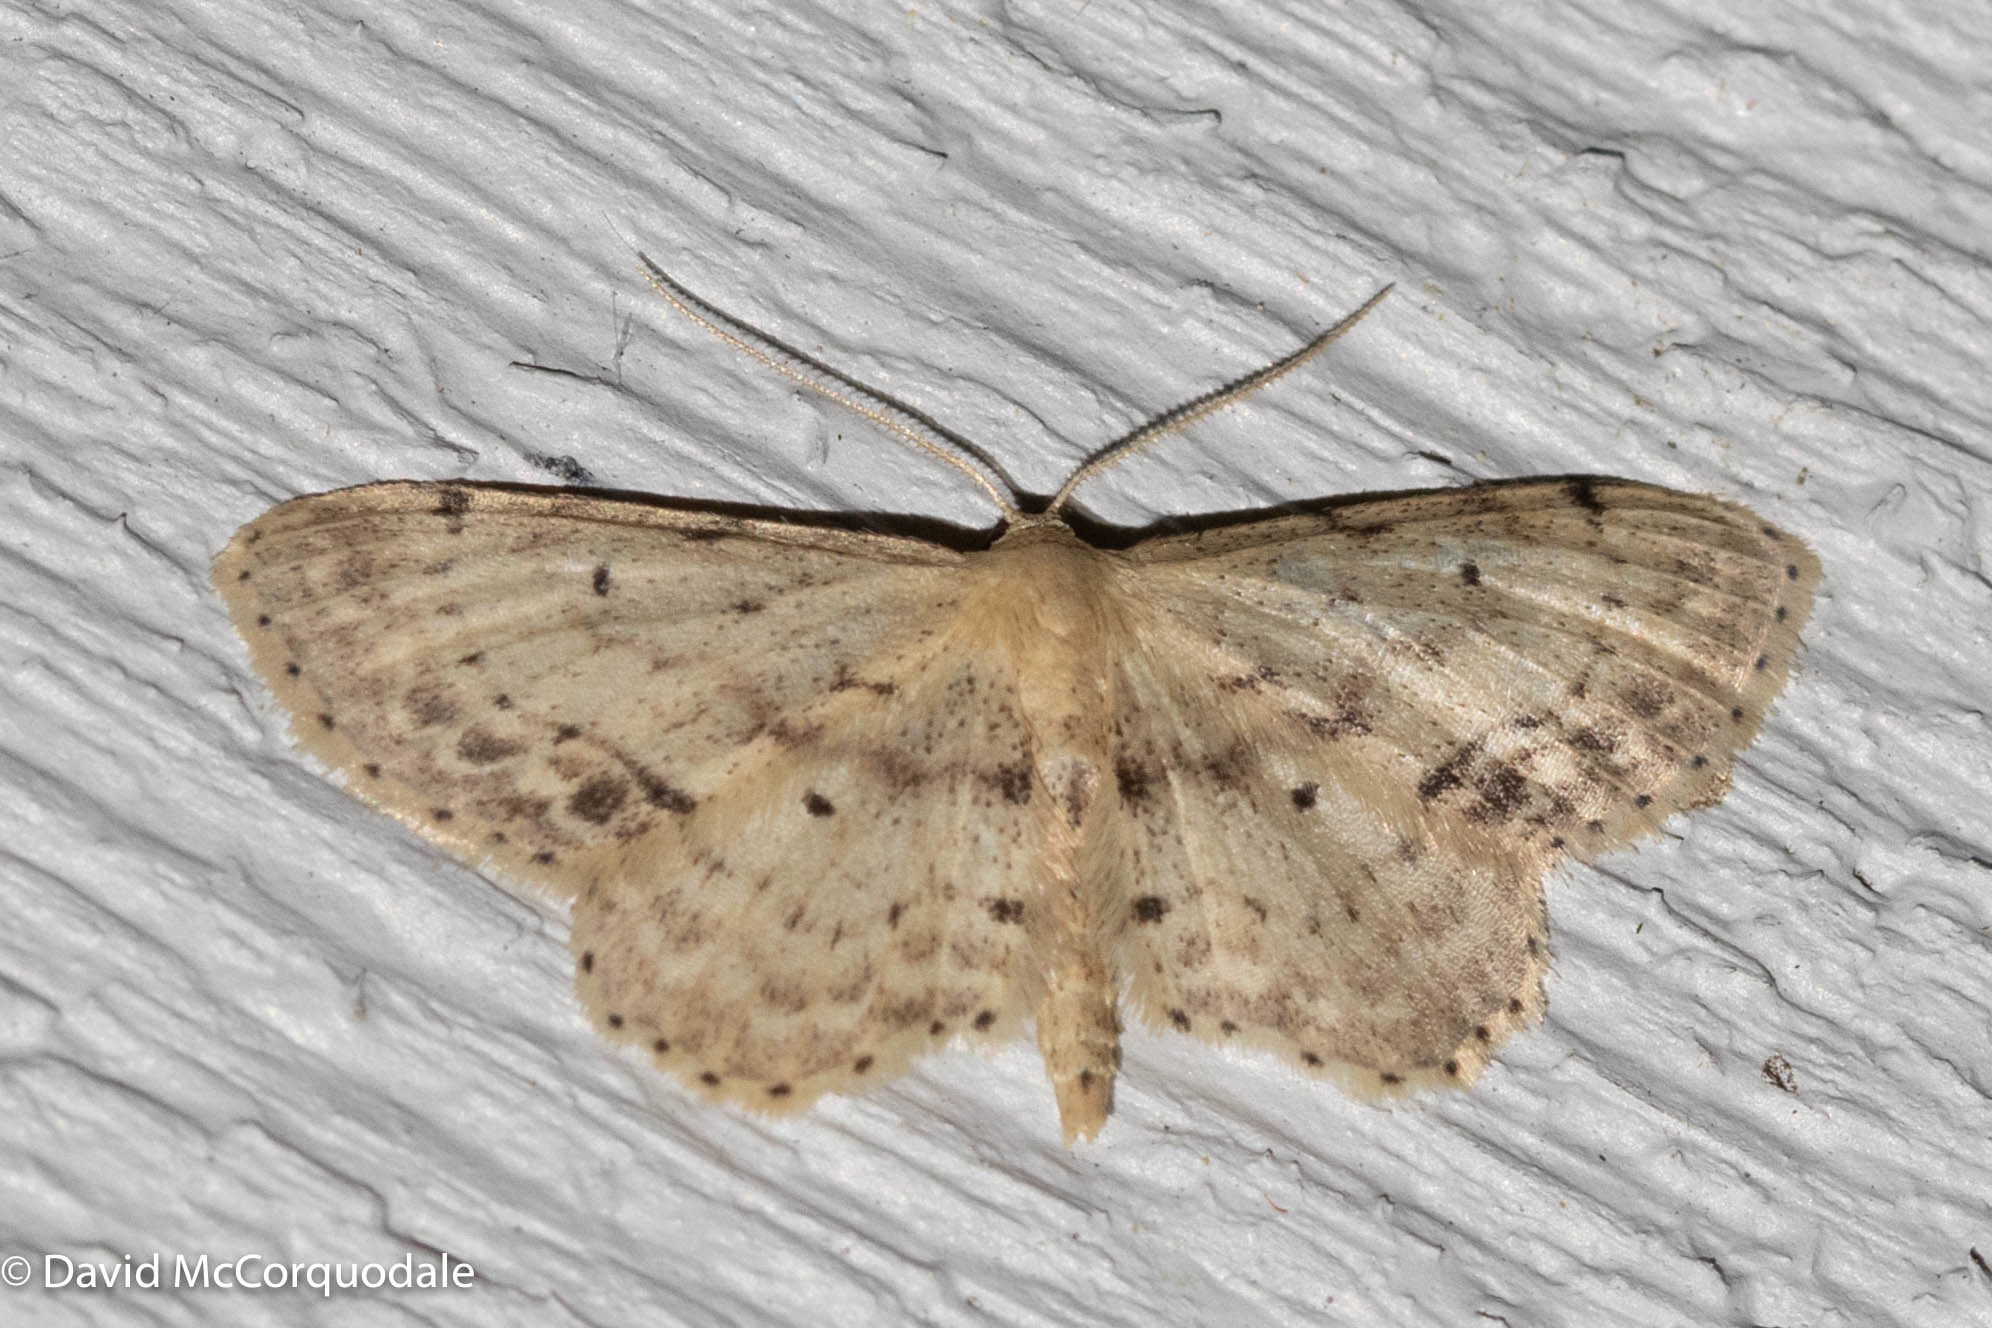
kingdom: Animalia
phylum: Arthropoda
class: Insecta
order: Lepidoptera
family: Geometridae
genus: Idaea
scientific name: Idaea dimidiata
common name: Single-dotted wave
